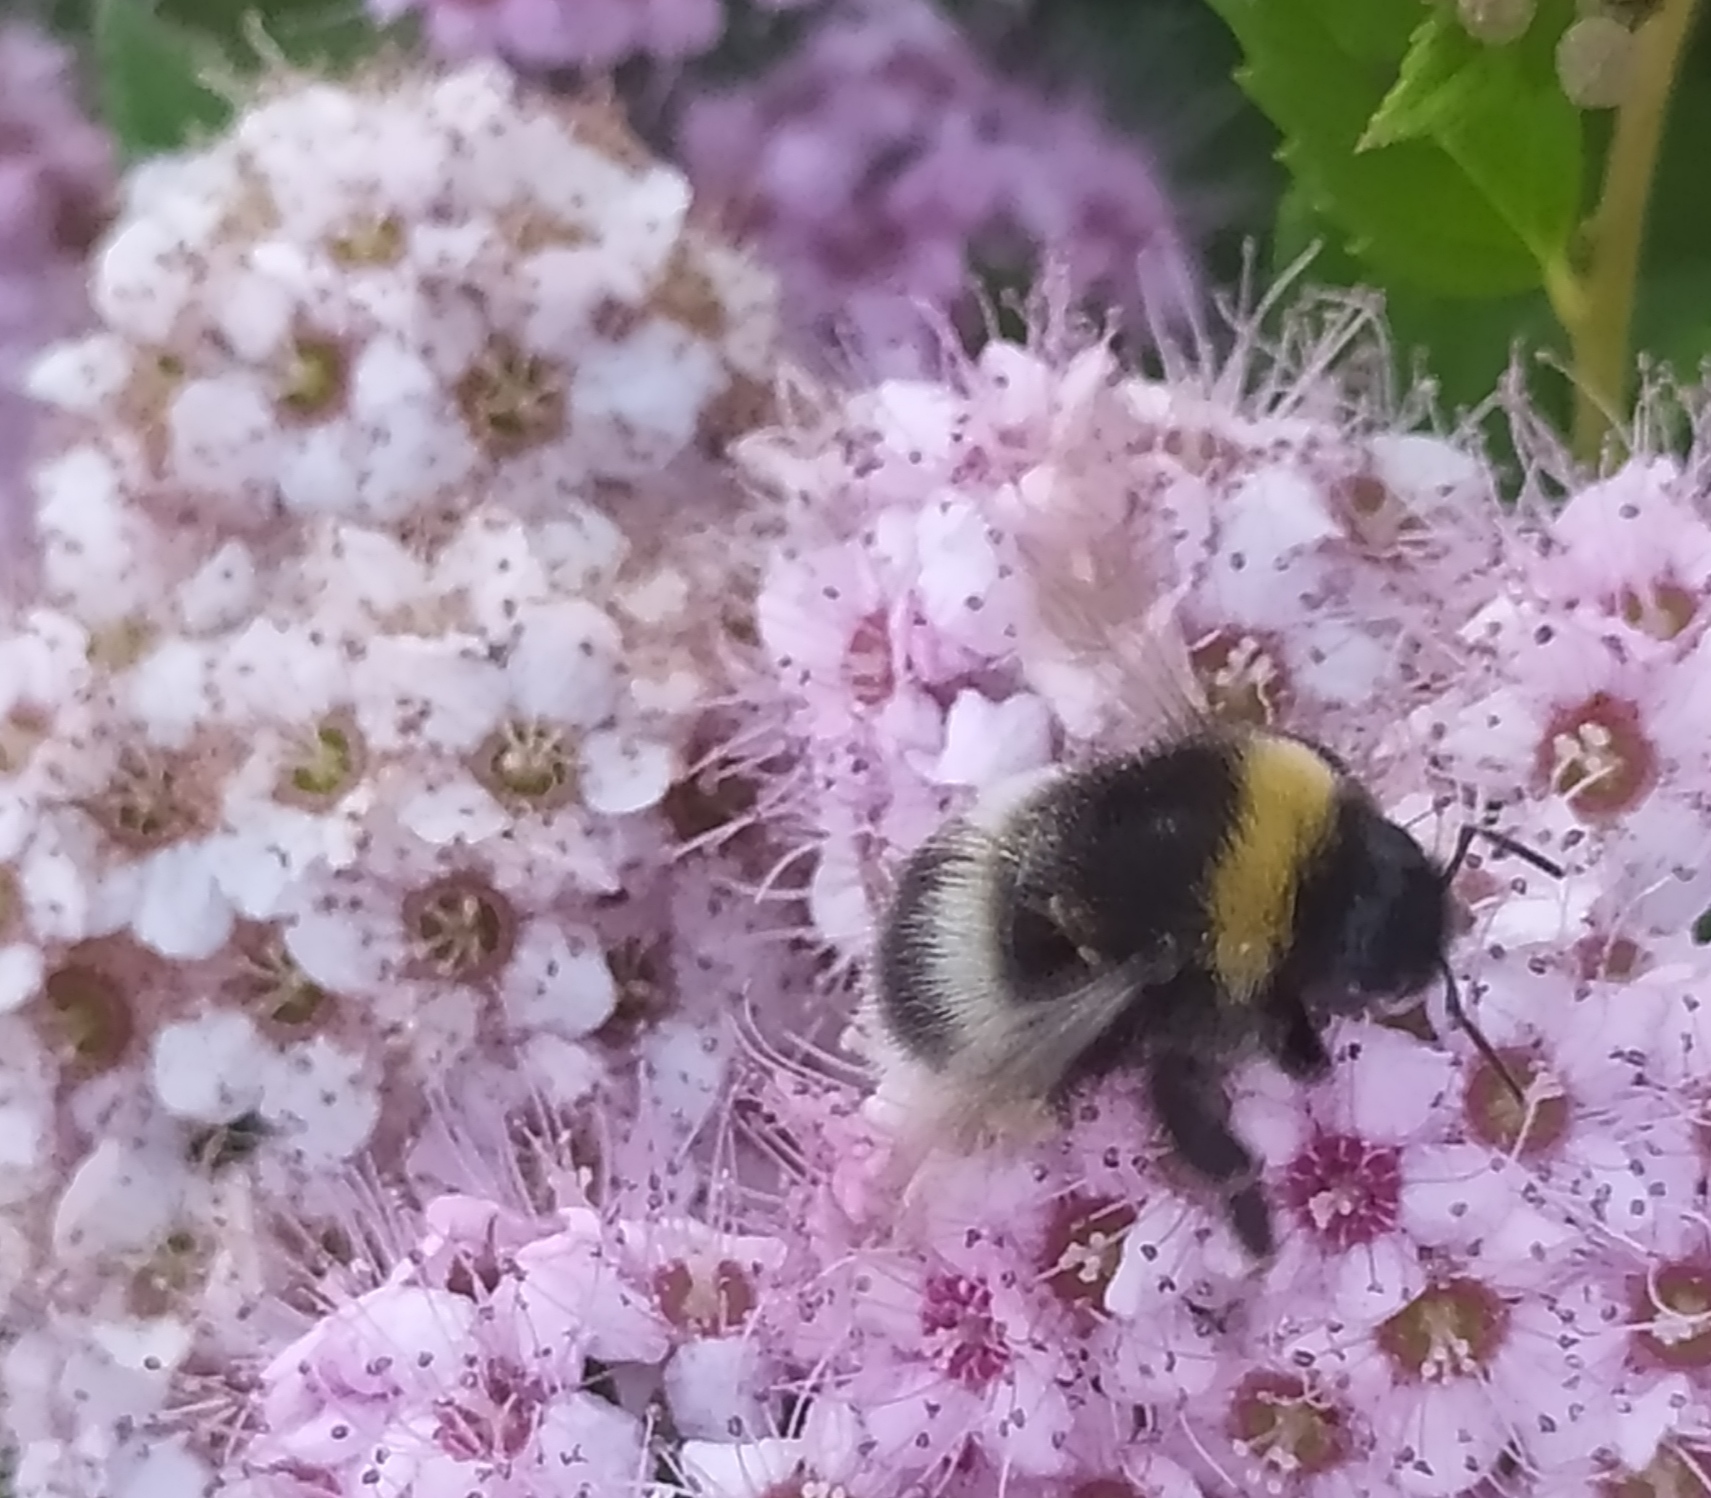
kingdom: Animalia
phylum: Arthropoda
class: Insecta
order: Hymenoptera
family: Apidae
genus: Bombus
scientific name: Bombus
